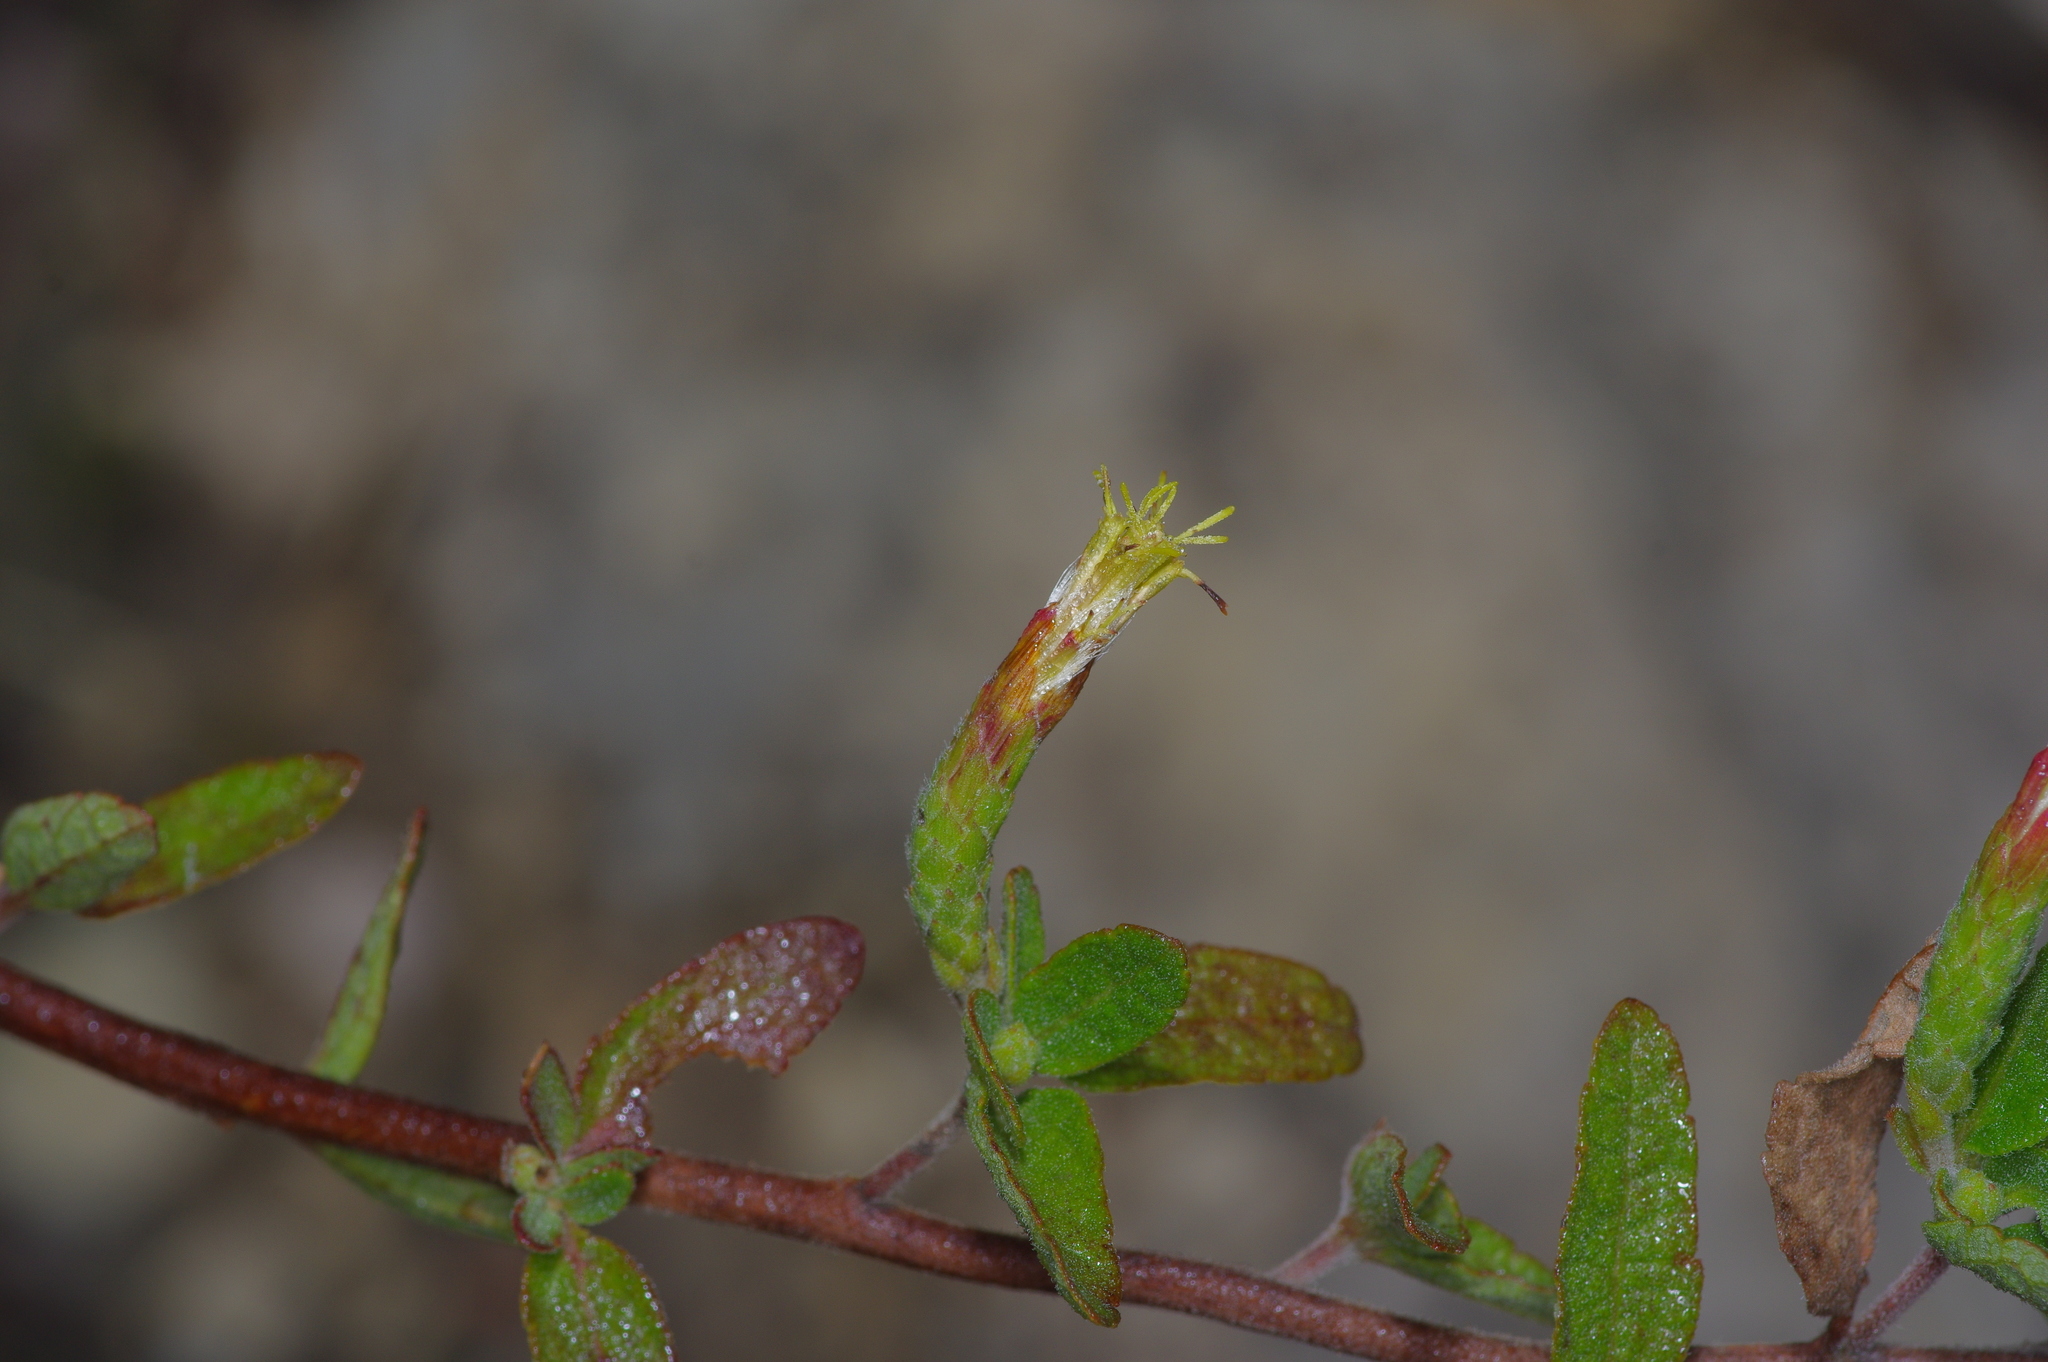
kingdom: Plantae
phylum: Tracheophyta
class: Magnoliopsida
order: Asterales
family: Asteraceae
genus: Brickellia
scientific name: Brickellia cylindracea
